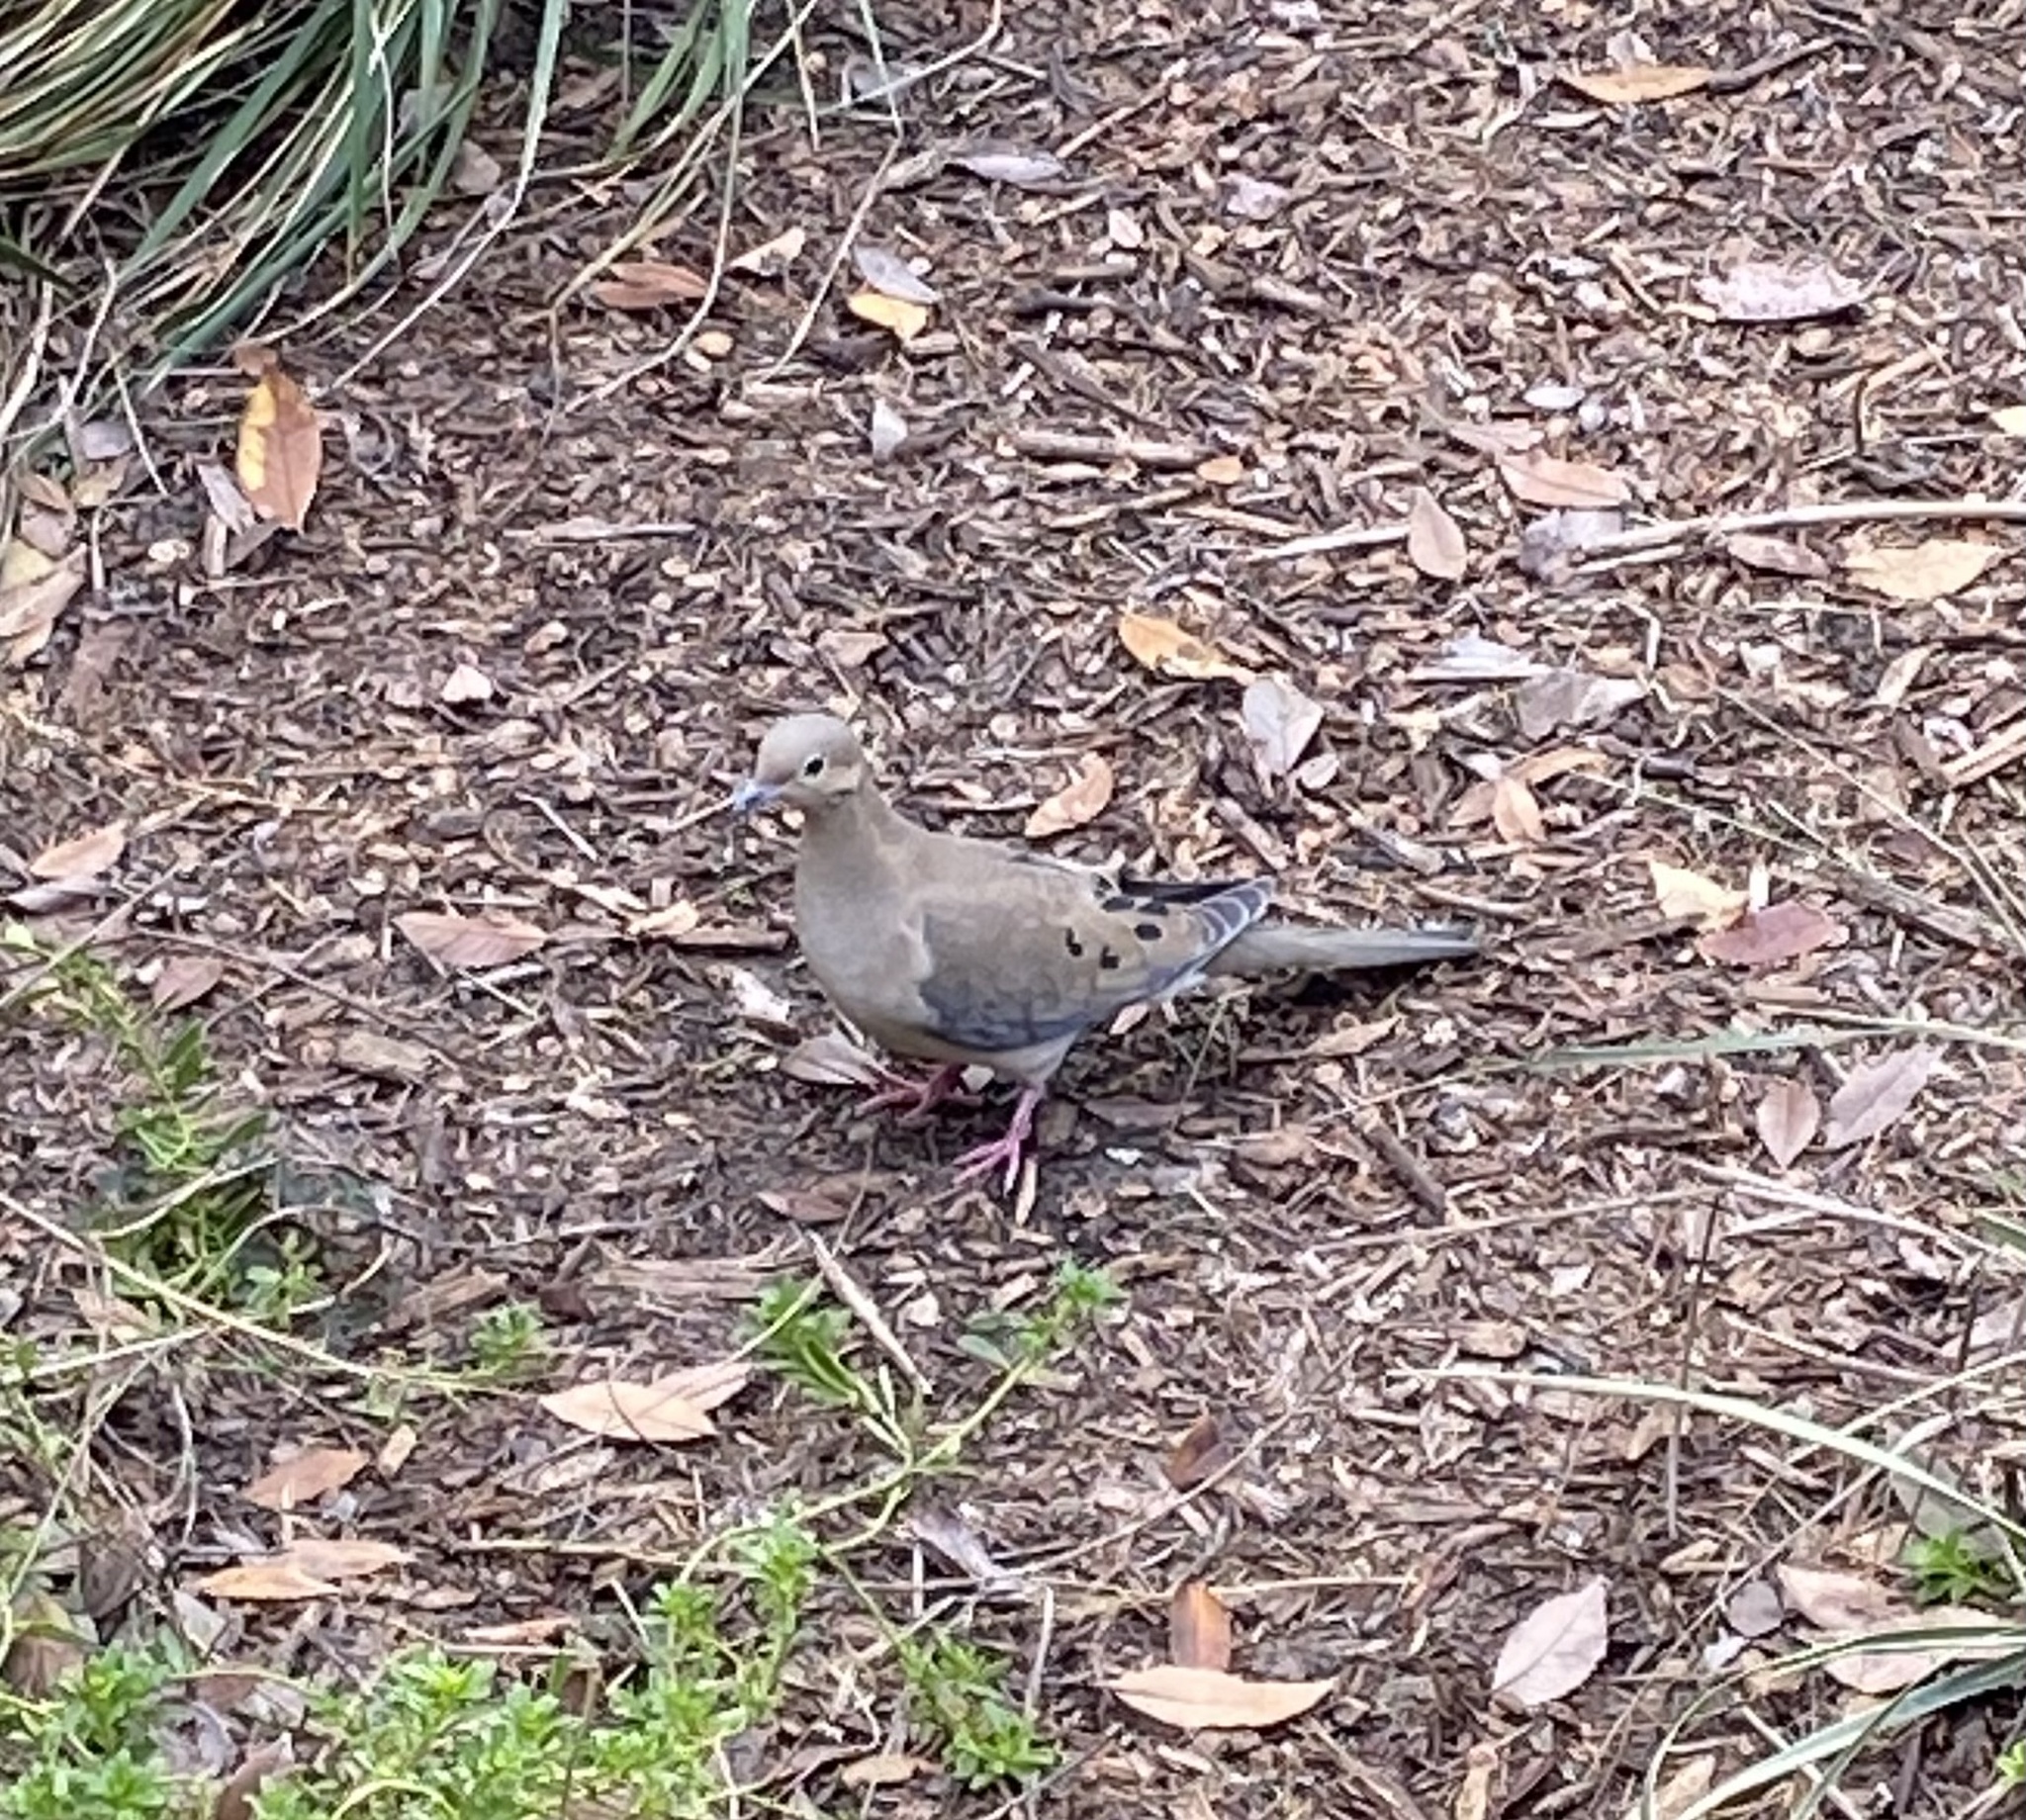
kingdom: Animalia
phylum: Chordata
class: Aves
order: Columbiformes
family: Columbidae
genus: Zenaida
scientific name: Zenaida macroura
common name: Mourning dove
